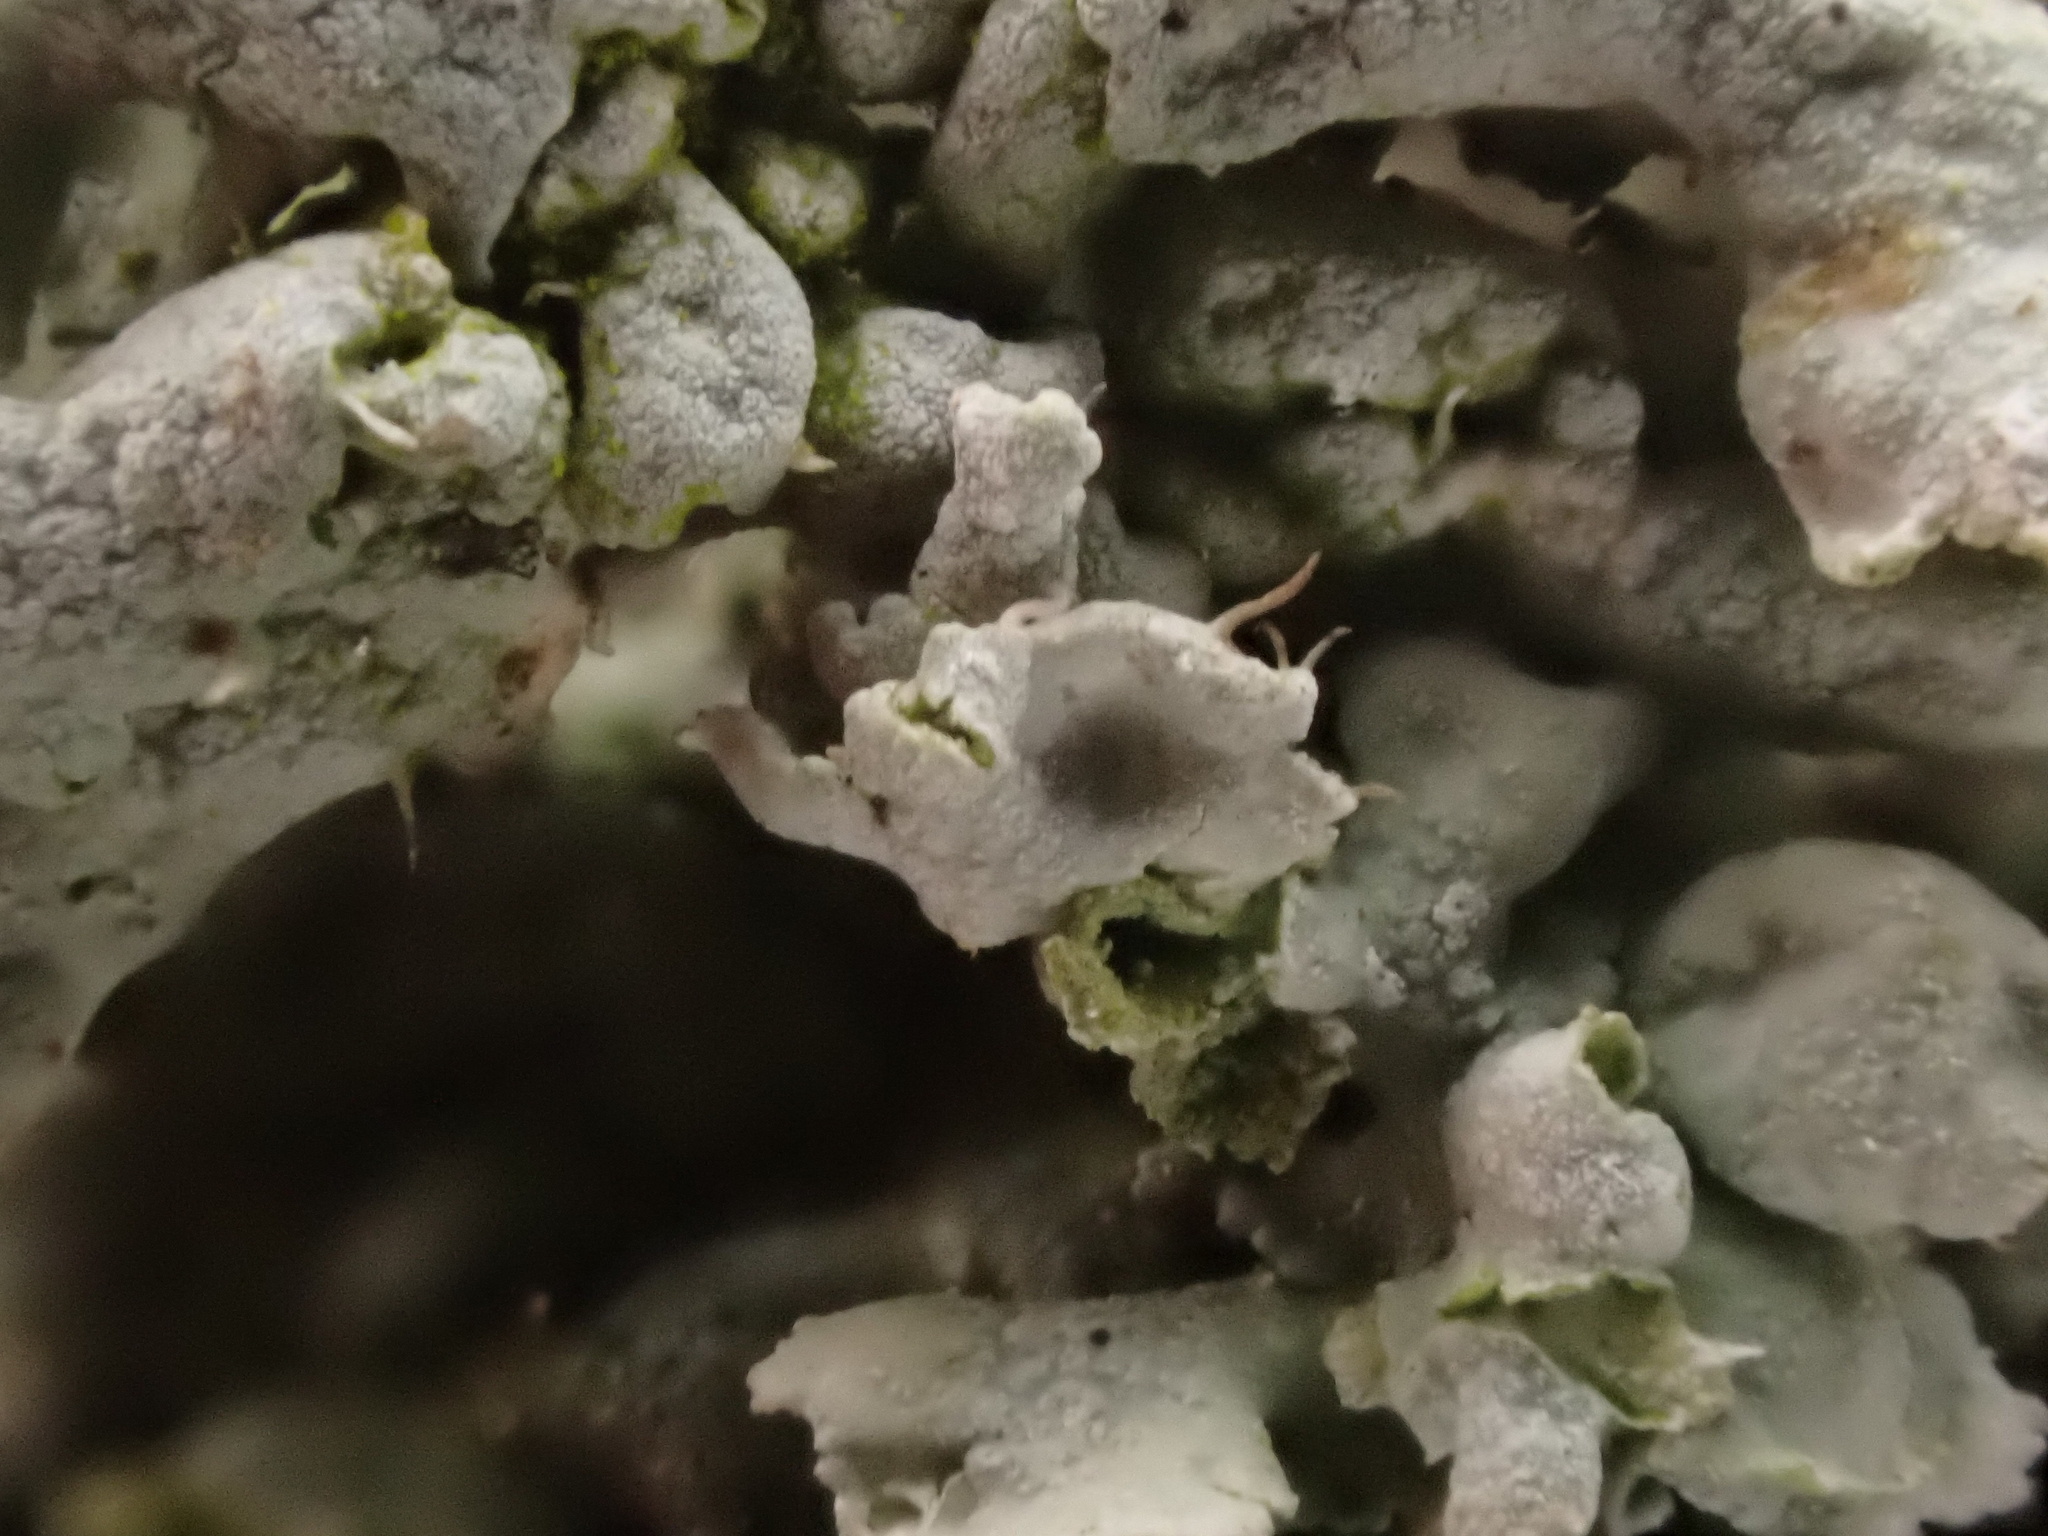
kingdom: Fungi
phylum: Ascomycota
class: Lecanoromycetes
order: Caliciales
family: Physciaceae
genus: Physcia
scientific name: Physcia adscendens
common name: Hooded rosette lichen
